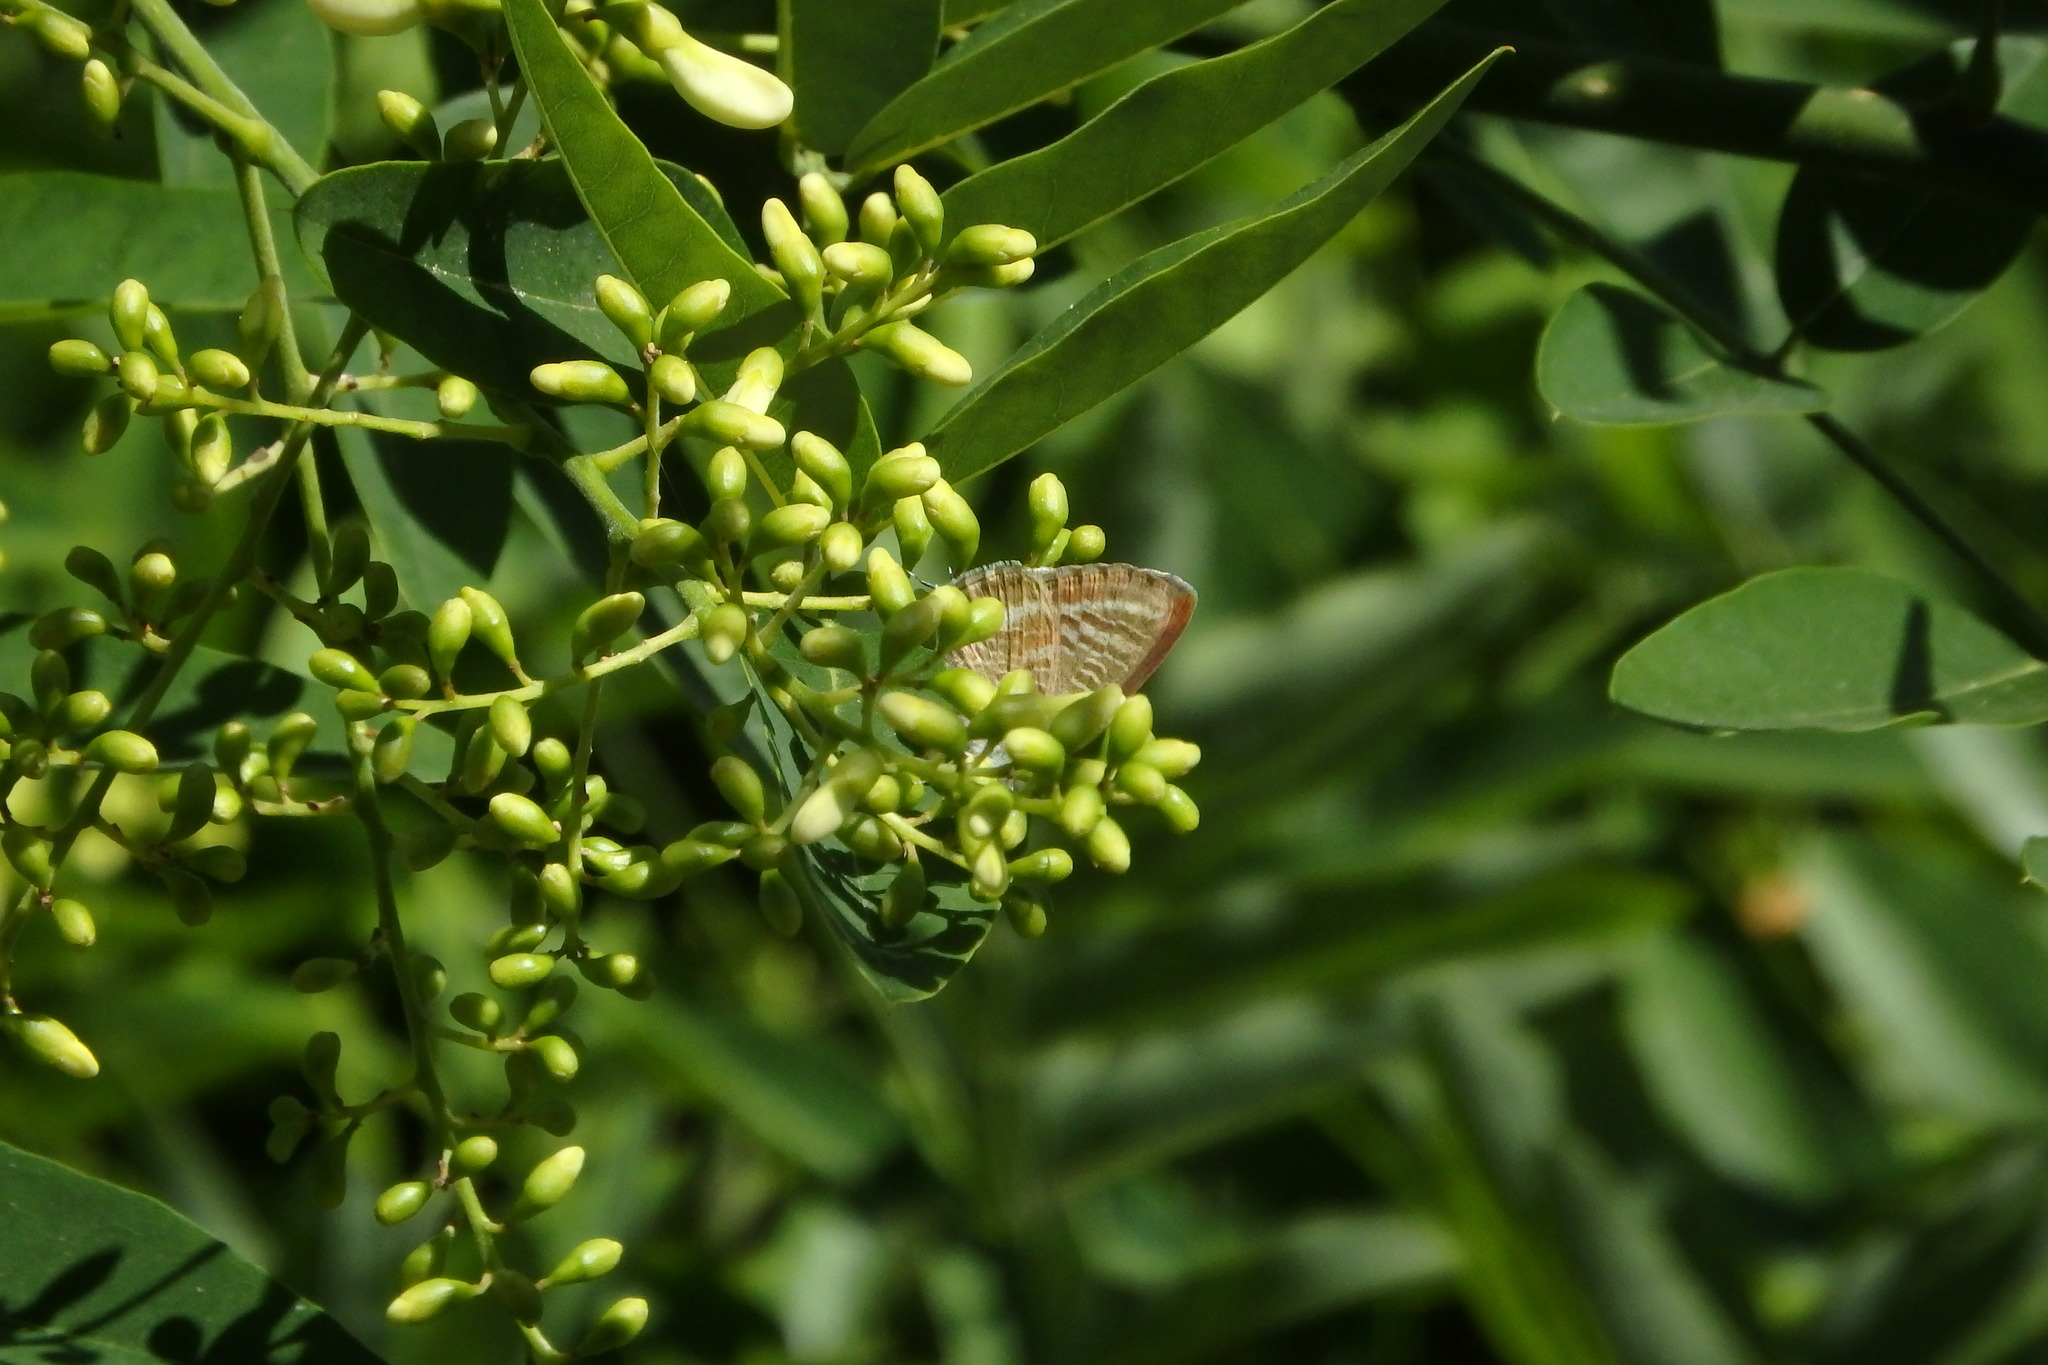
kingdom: Animalia
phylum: Arthropoda
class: Insecta
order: Lepidoptera
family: Lycaenidae
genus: Lampides
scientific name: Lampides boeticus
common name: Long-tailed blue
